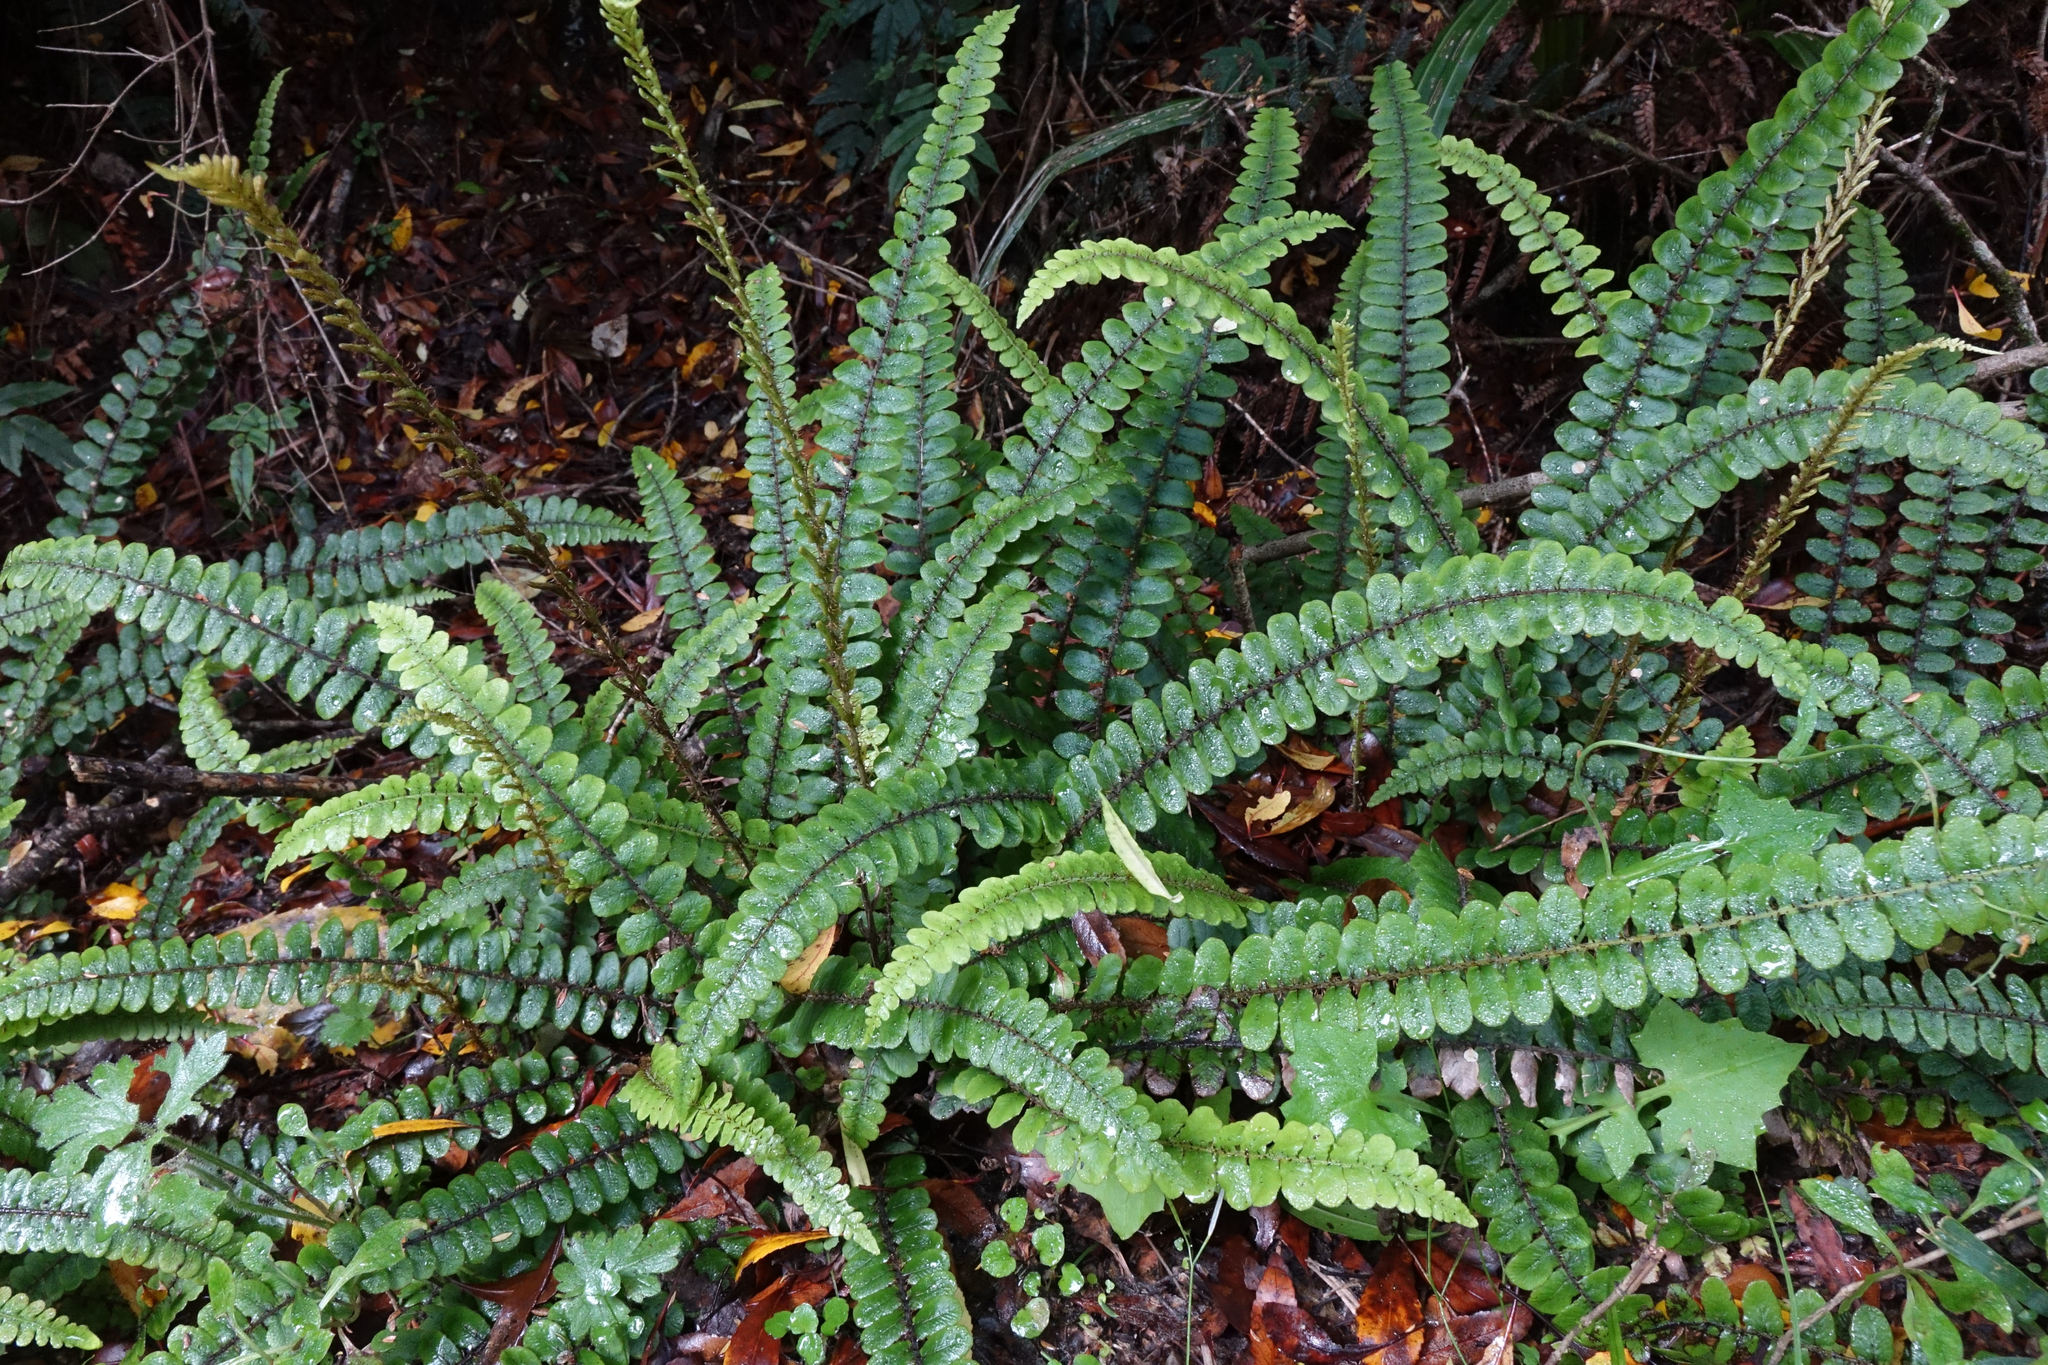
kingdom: Plantae
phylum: Tracheophyta
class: Polypodiopsida
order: Polypodiales
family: Blechnaceae
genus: Cranfillia
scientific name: Cranfillia fluviatilis
